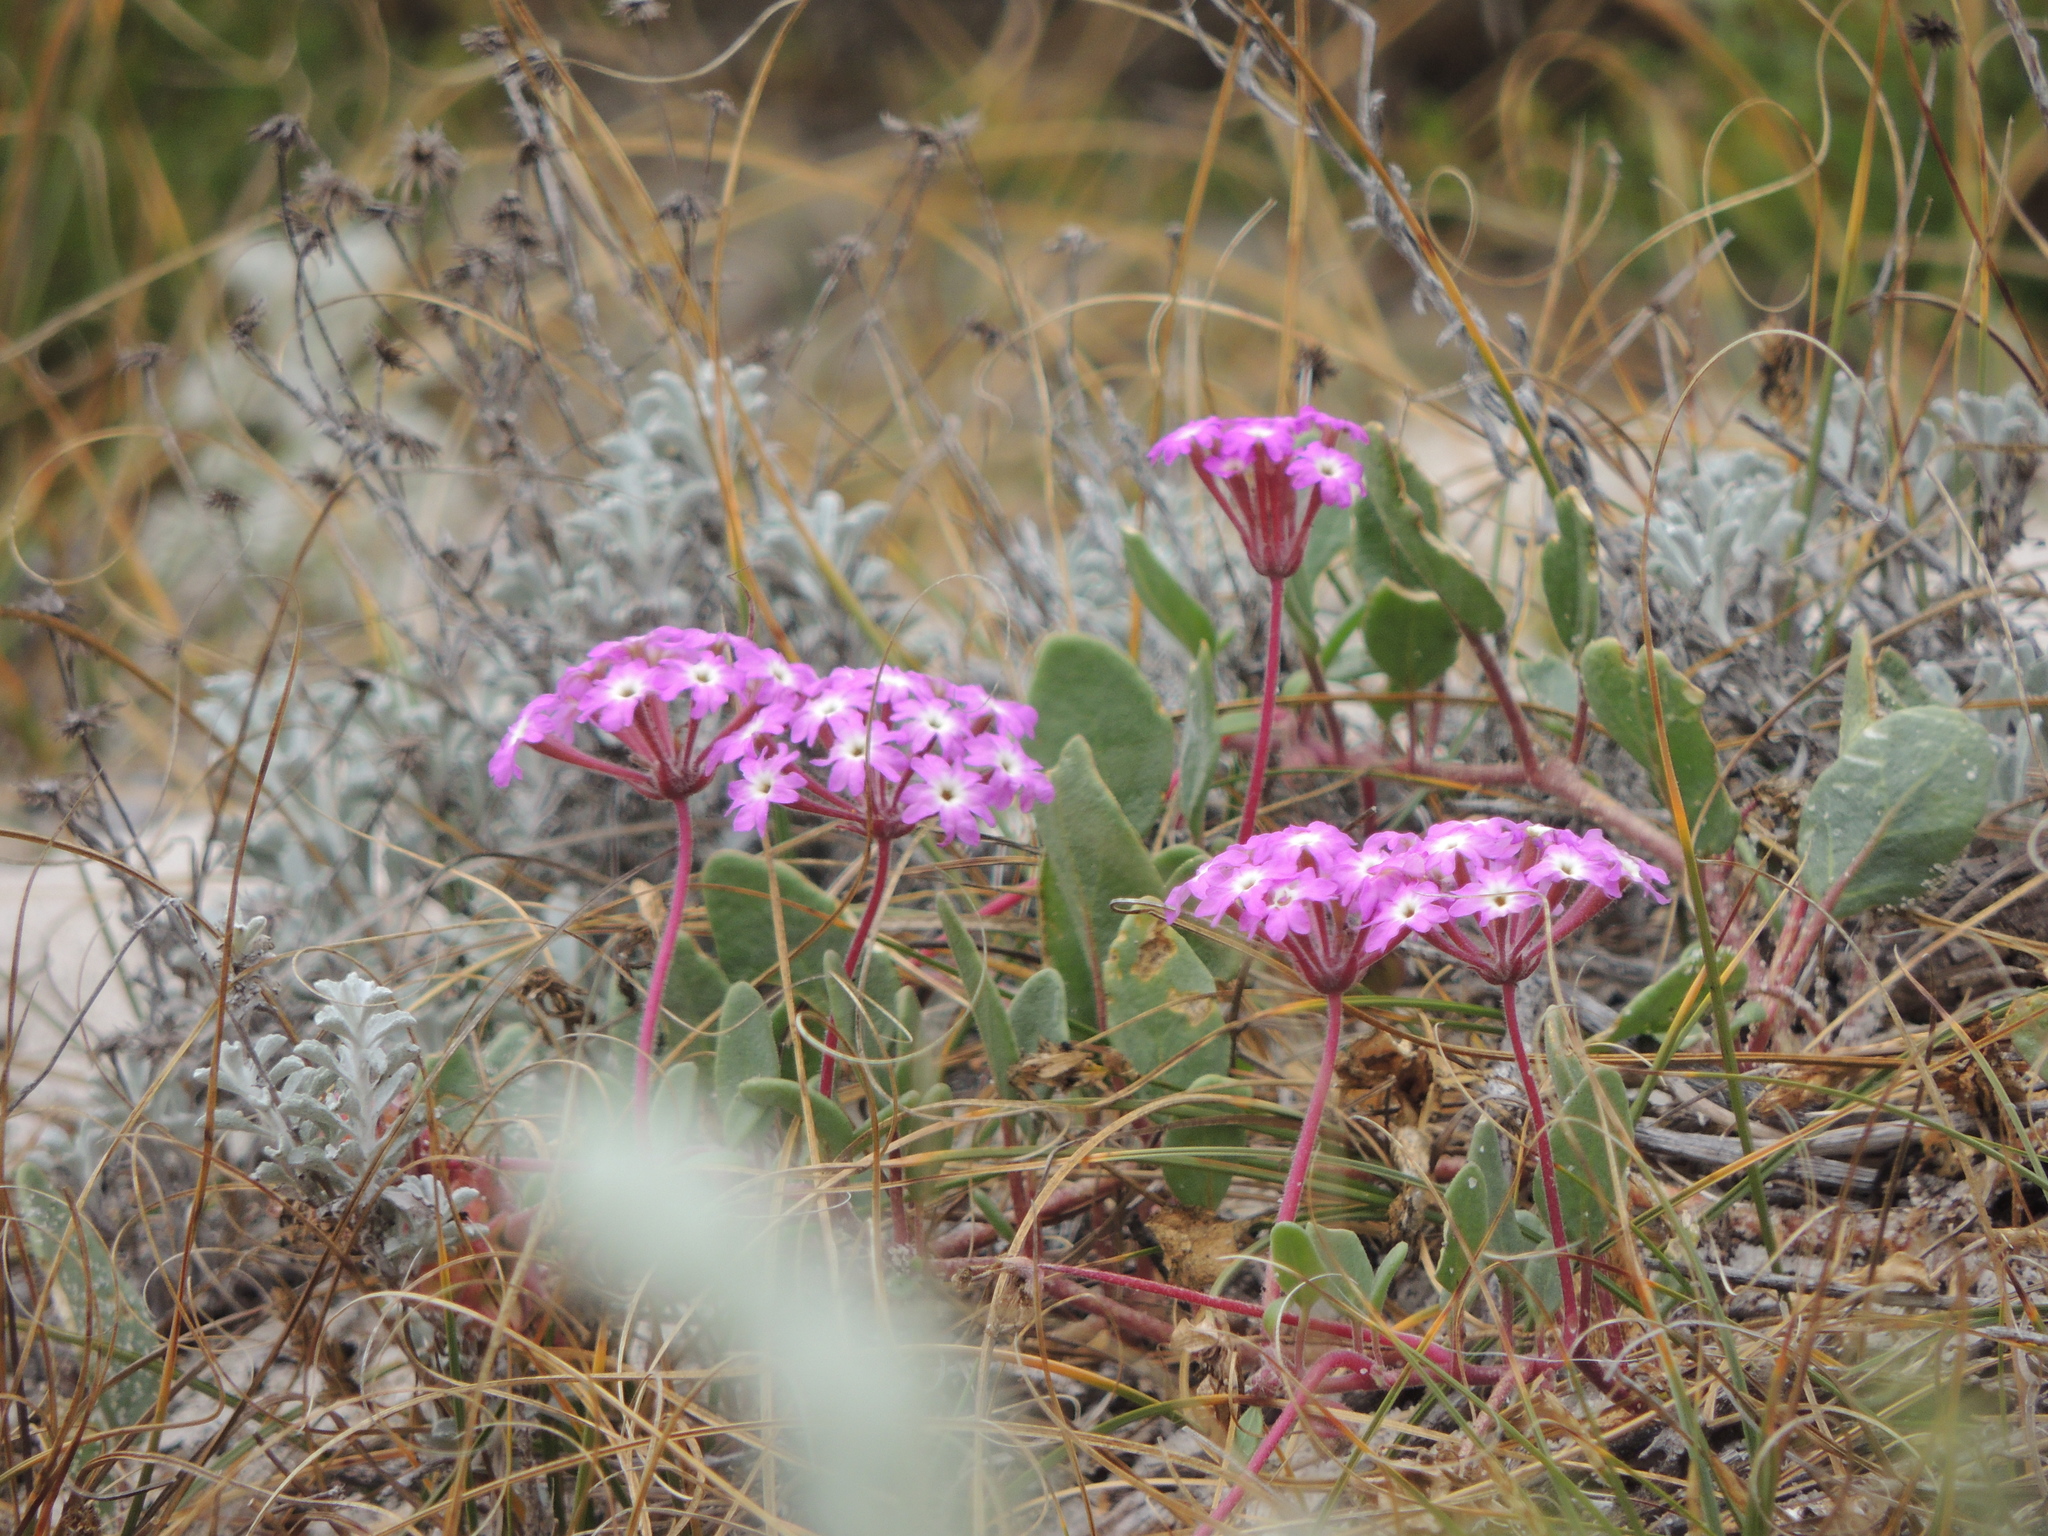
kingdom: Plantae
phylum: Tracheophyta
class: Magnoliopsida
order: Caryophyllales
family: Nyctaginaceae
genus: Abronia
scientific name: Abronia umbellata
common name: Sand-verbena
